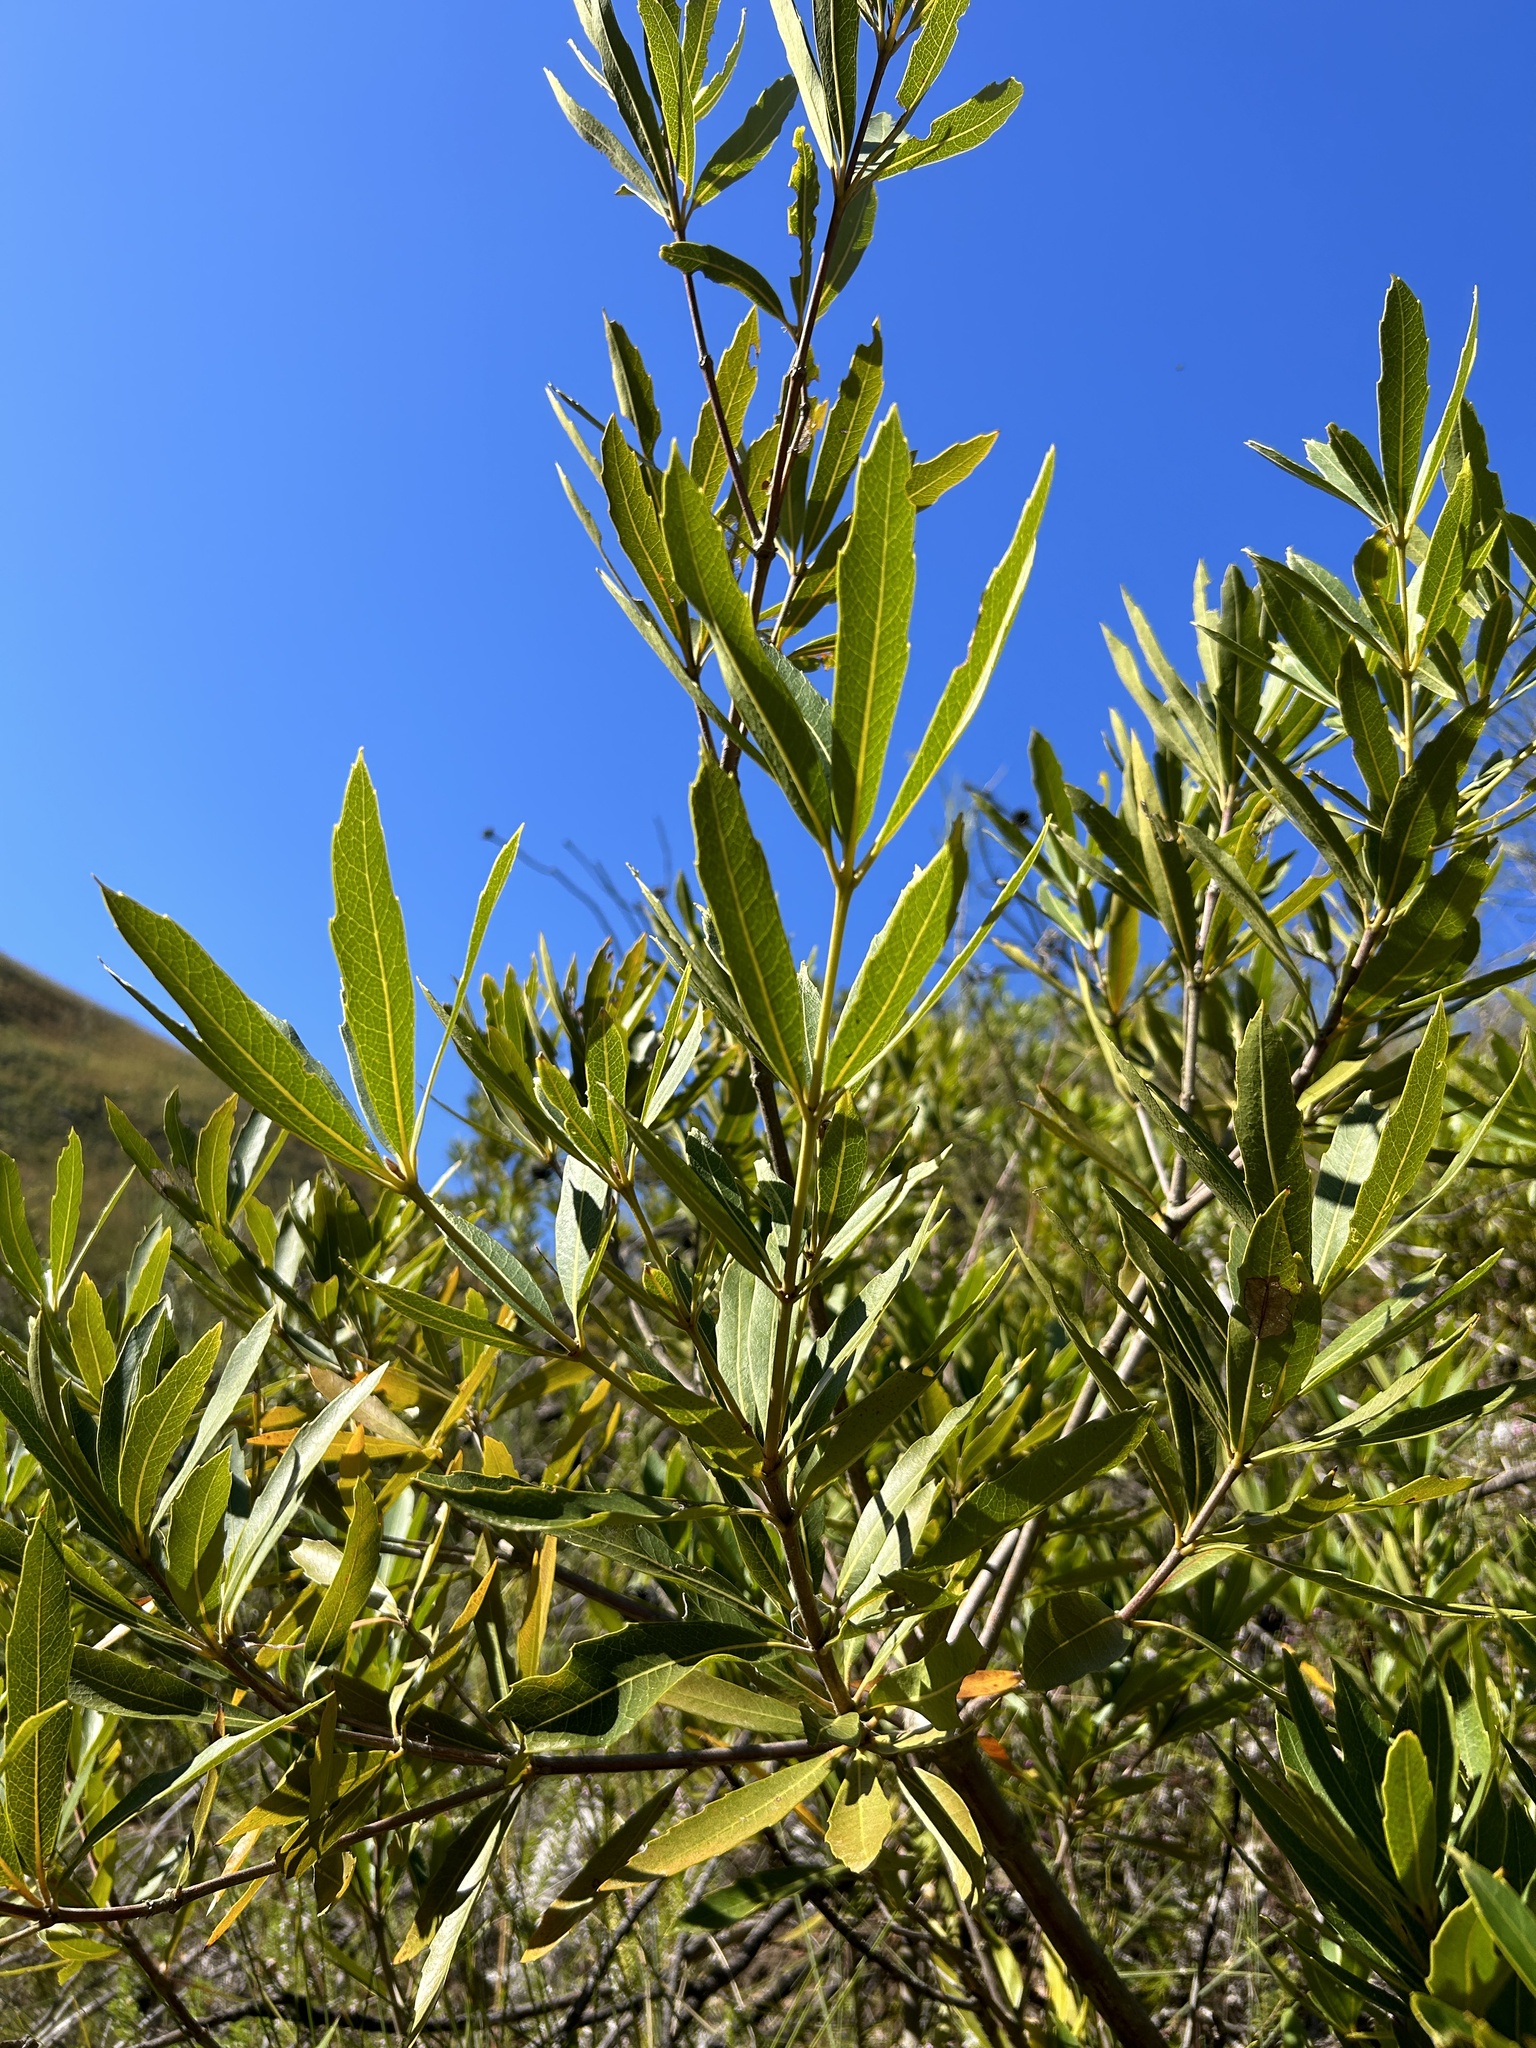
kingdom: Plantae
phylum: Tracheophyta
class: Magnoliopsida
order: Proteales
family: Proteaceae
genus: Brabejum
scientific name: Brabejum stellatifolium
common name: Wild almond
